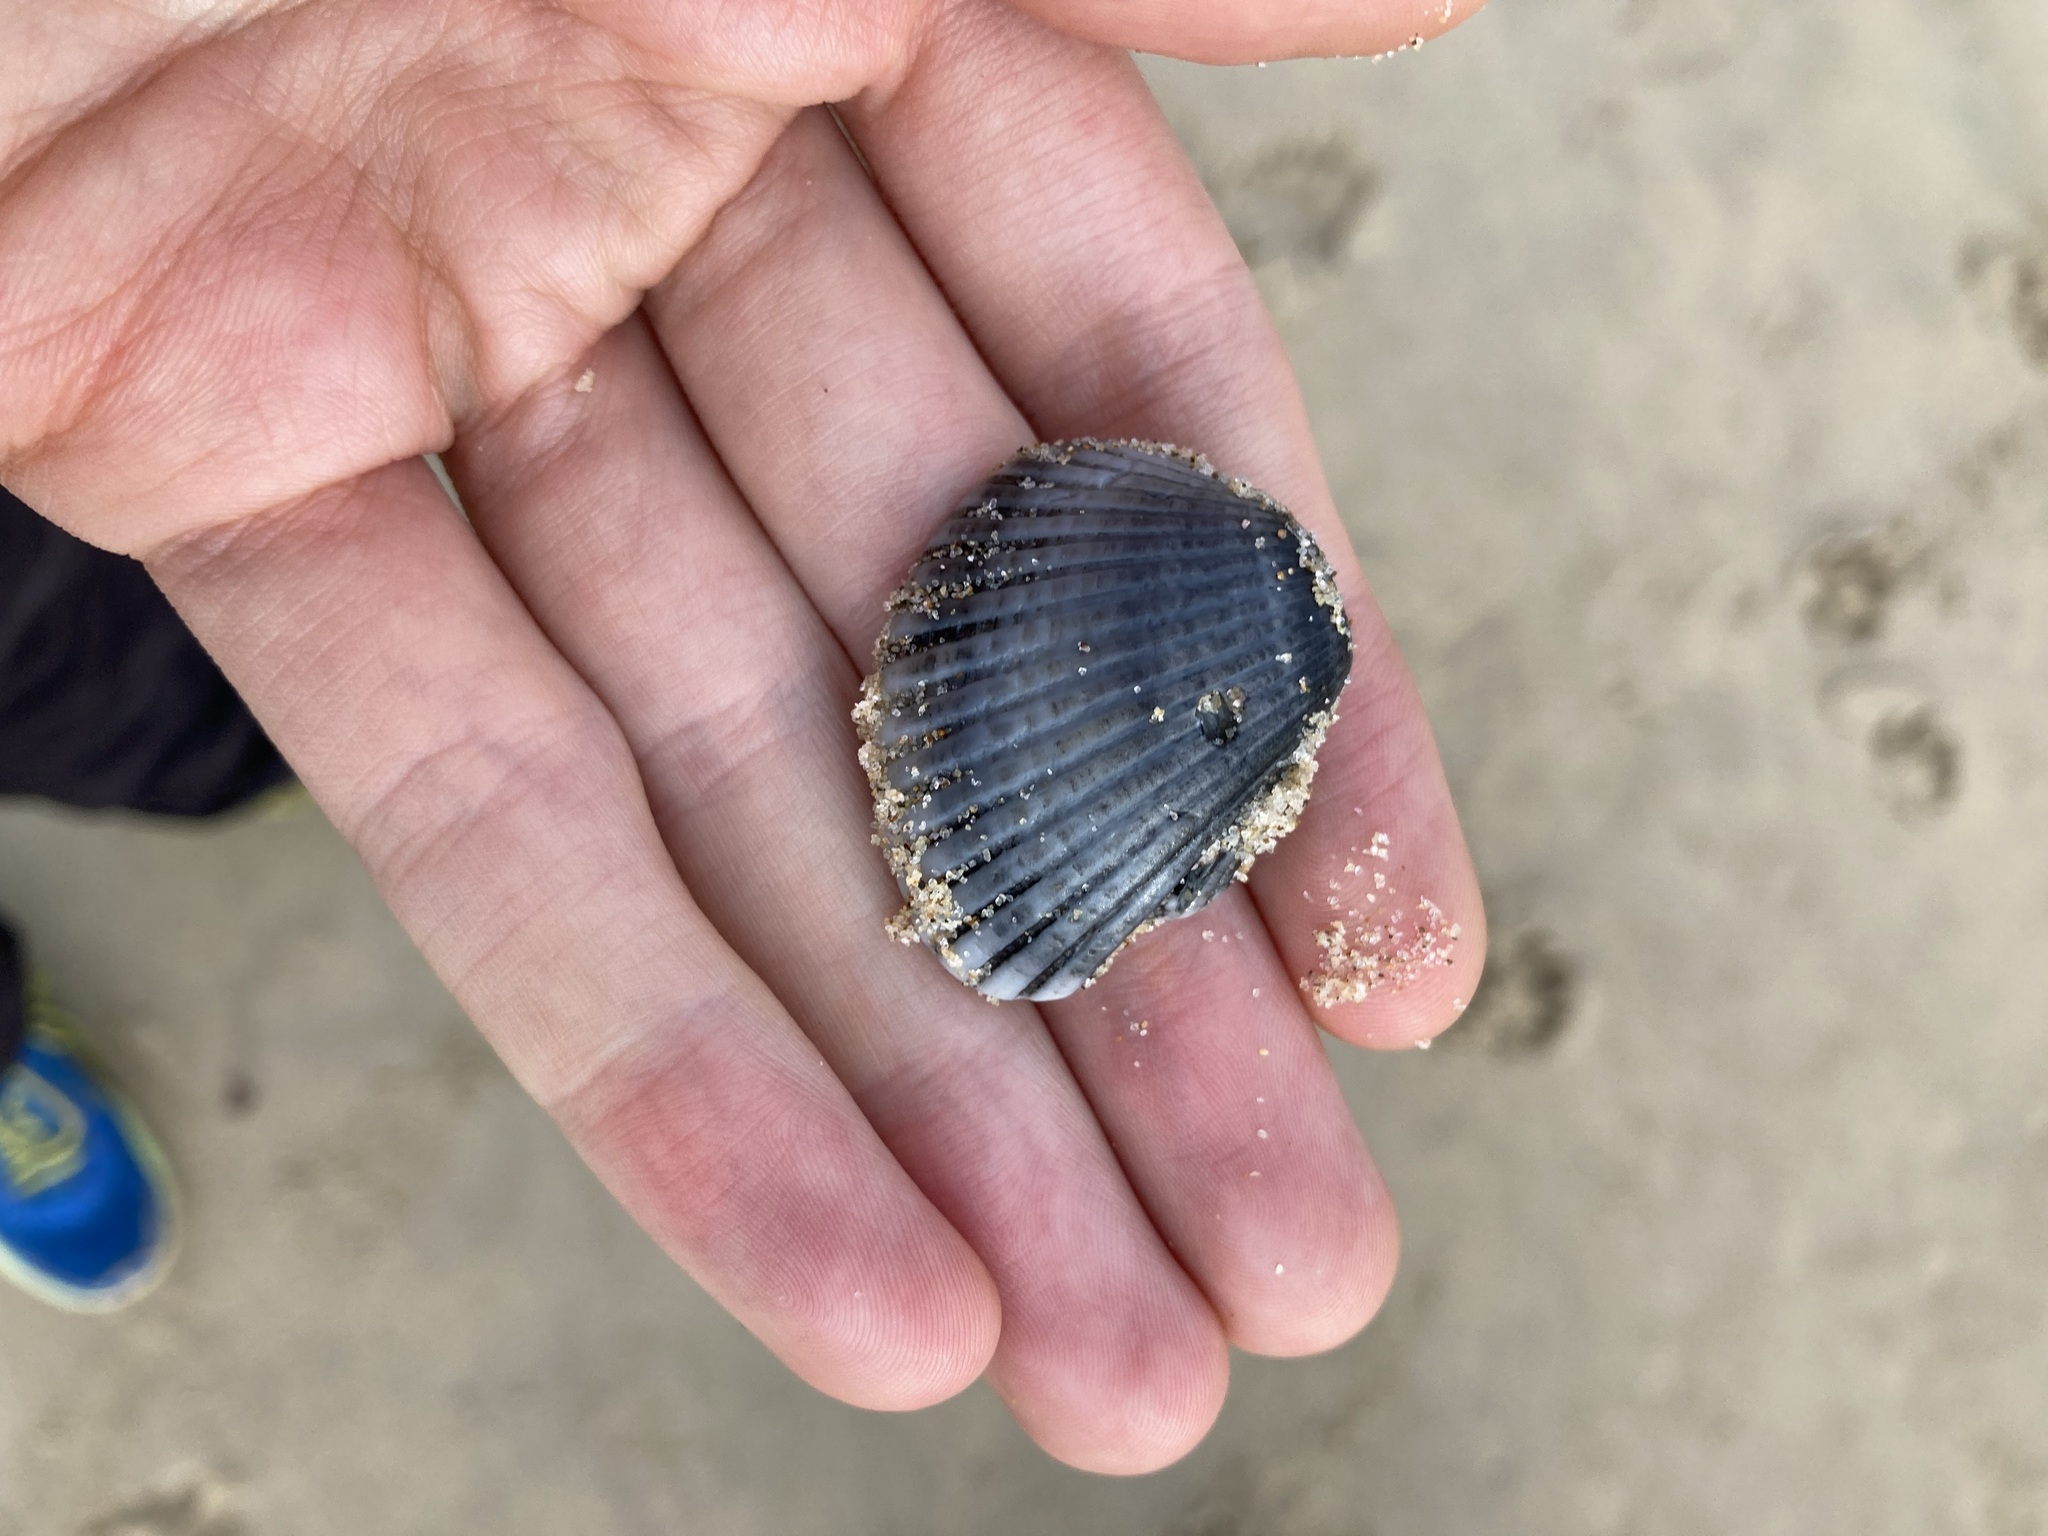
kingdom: Animalia
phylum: Mollusca
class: Bivalvia
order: Arcida
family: Arcidae
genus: Anadara
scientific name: Anadara trapezia
